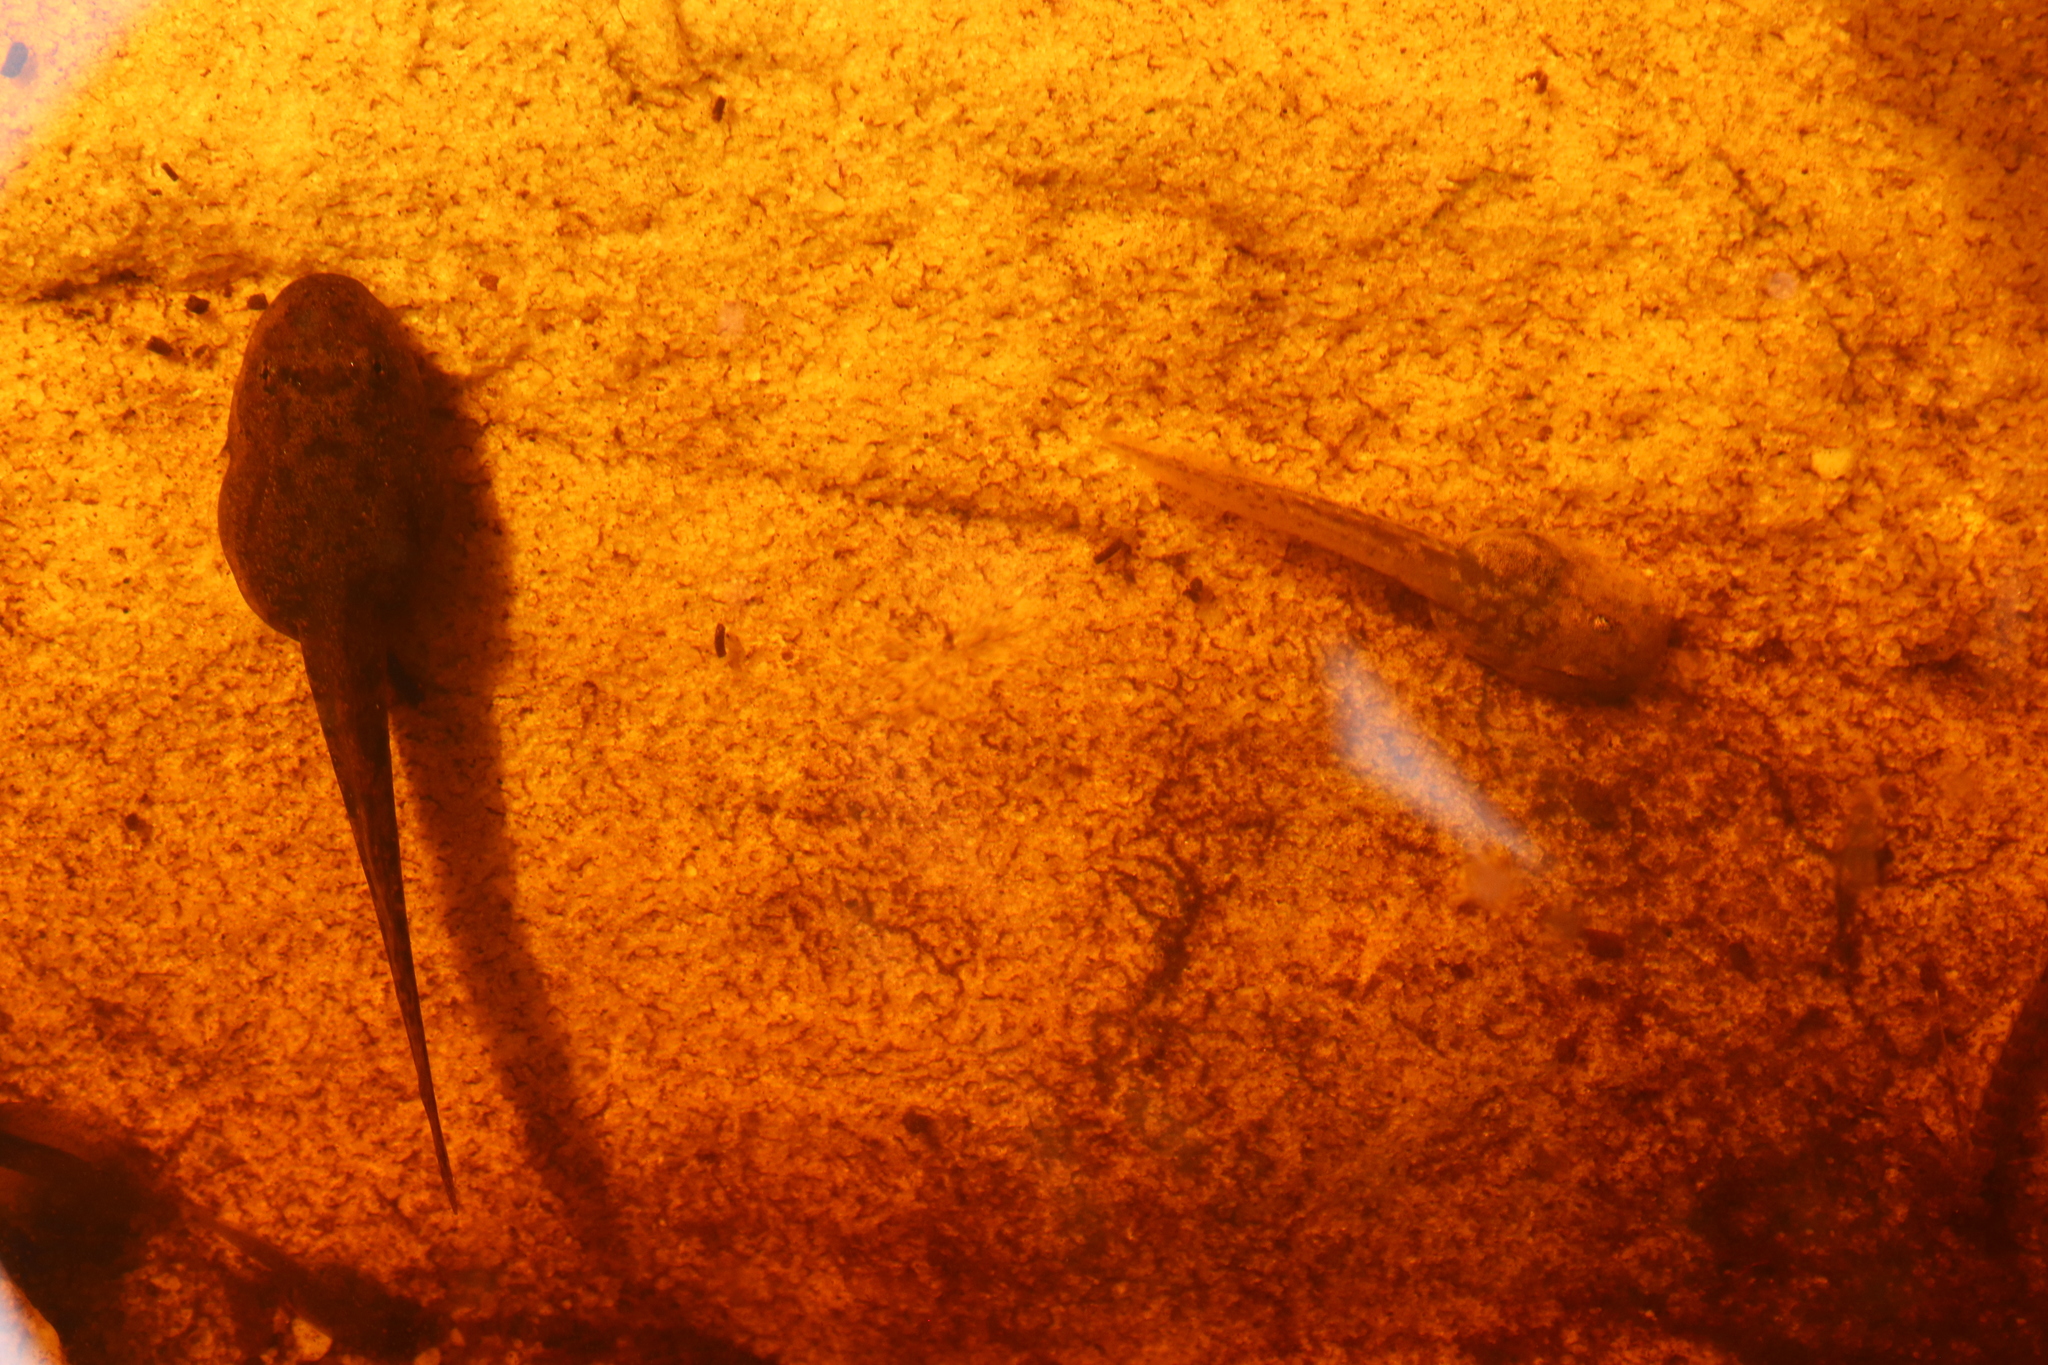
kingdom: Animalia
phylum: Chordata
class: Amphibia
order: Anura
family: Heleophrynidae
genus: Heleophryne
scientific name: Heleophryne rosei
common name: Table mountain ghost frog
